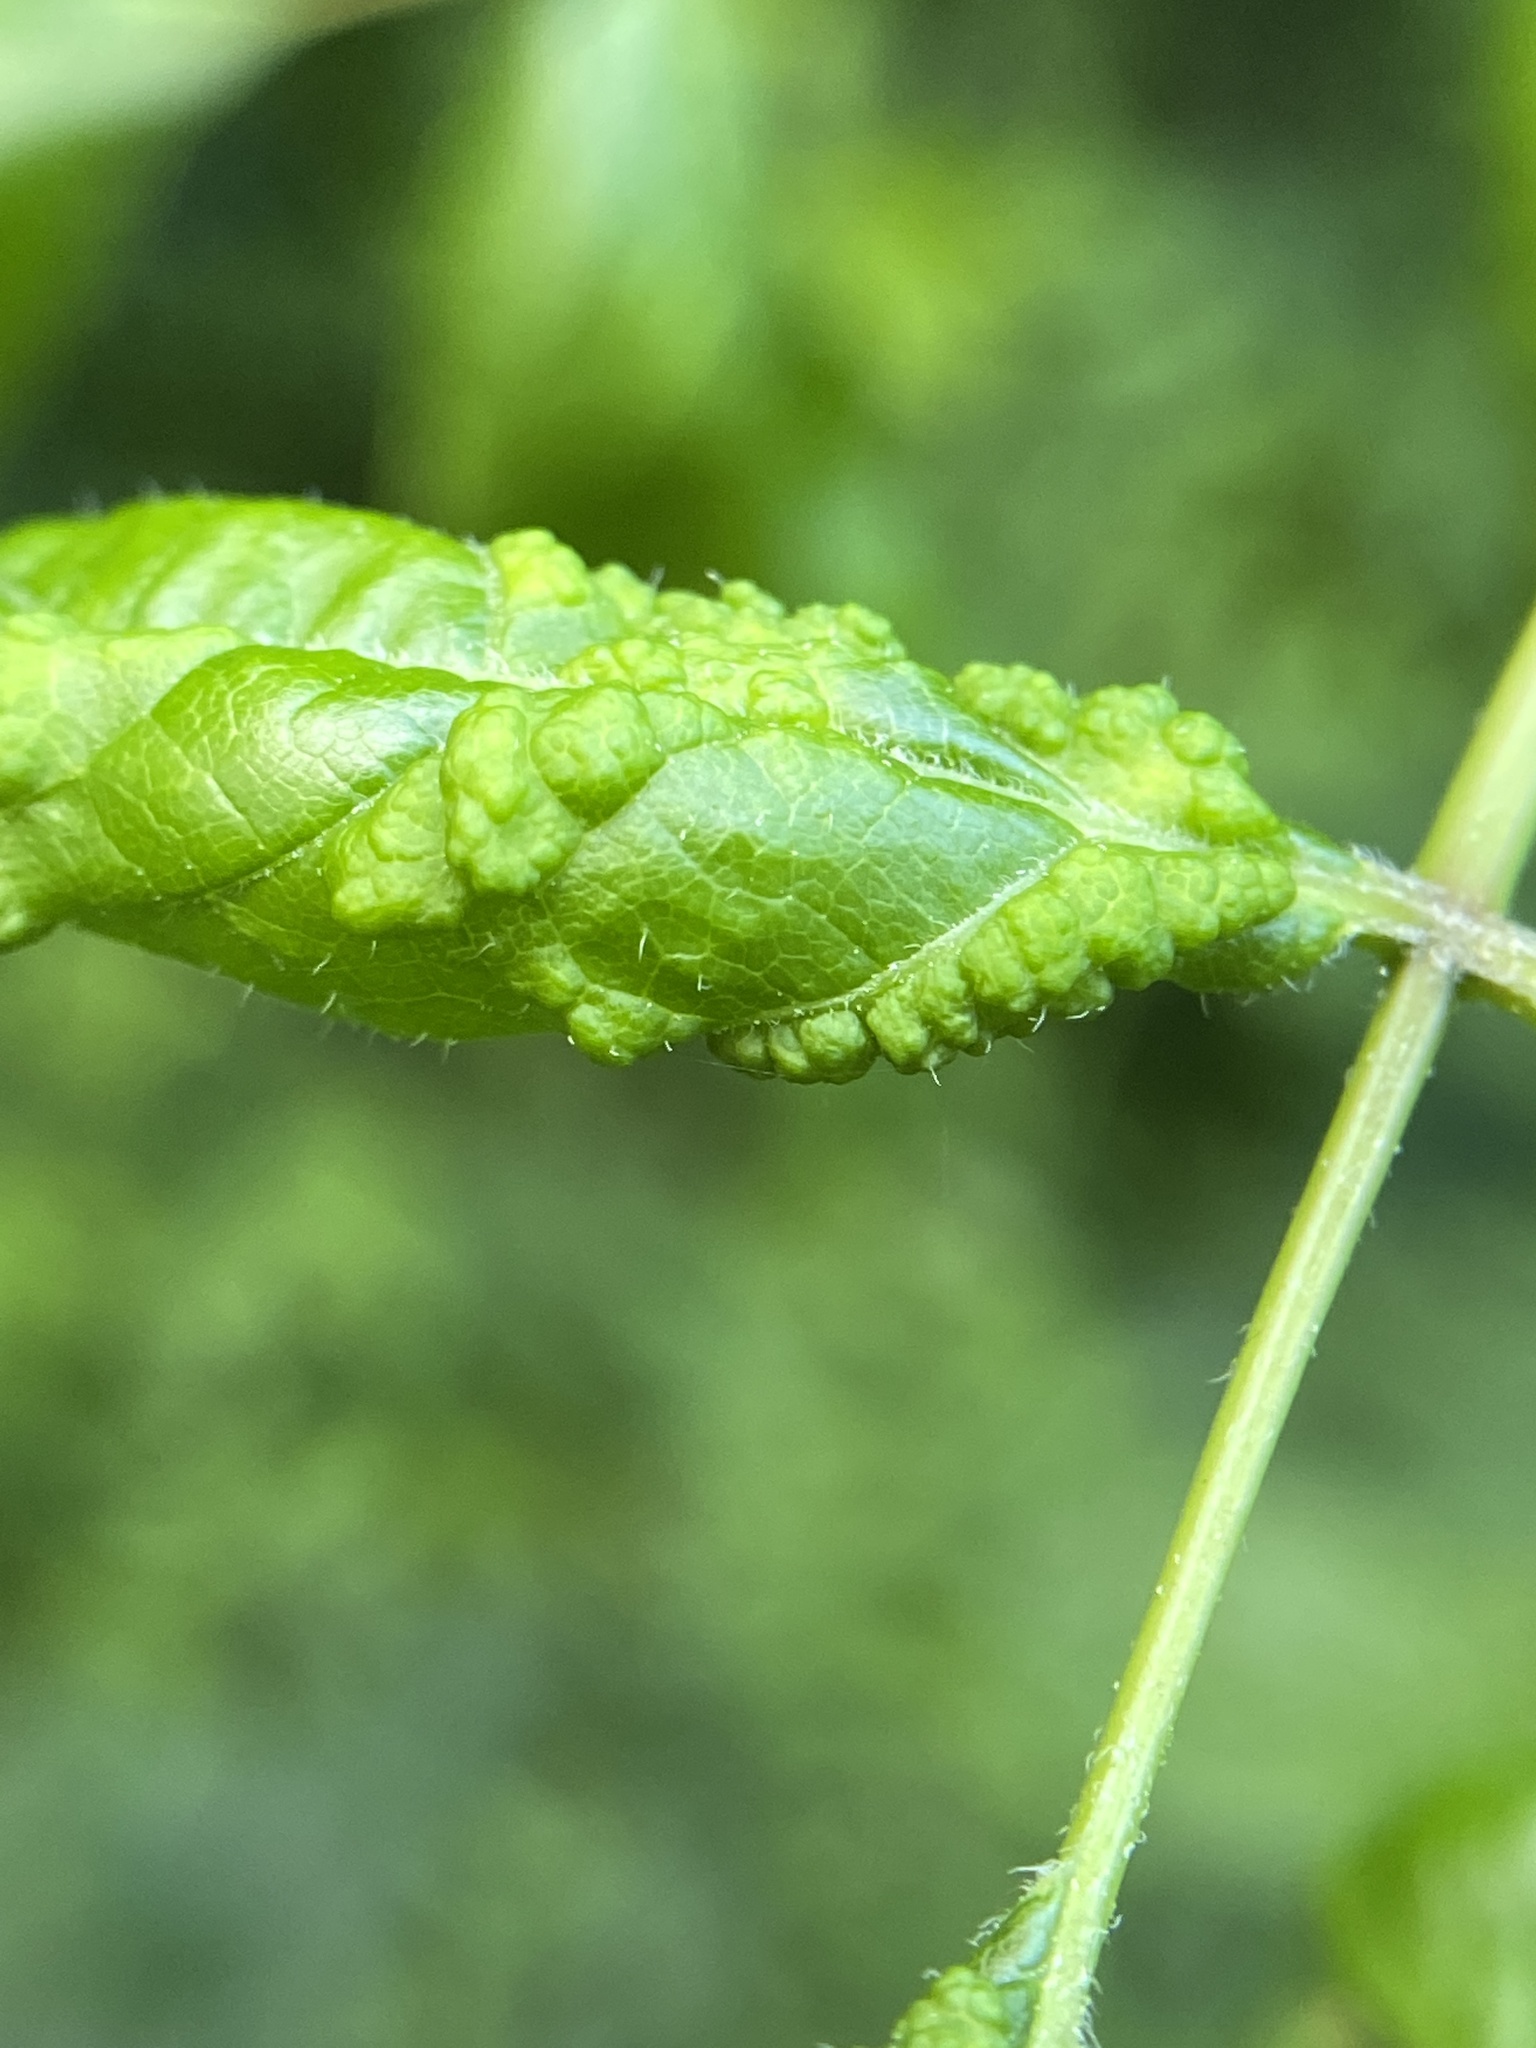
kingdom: Animalia
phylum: Arthropoda
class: Arachnida
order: Trombidiformes
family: Eriophyidae
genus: Aceria
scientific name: Aceria
